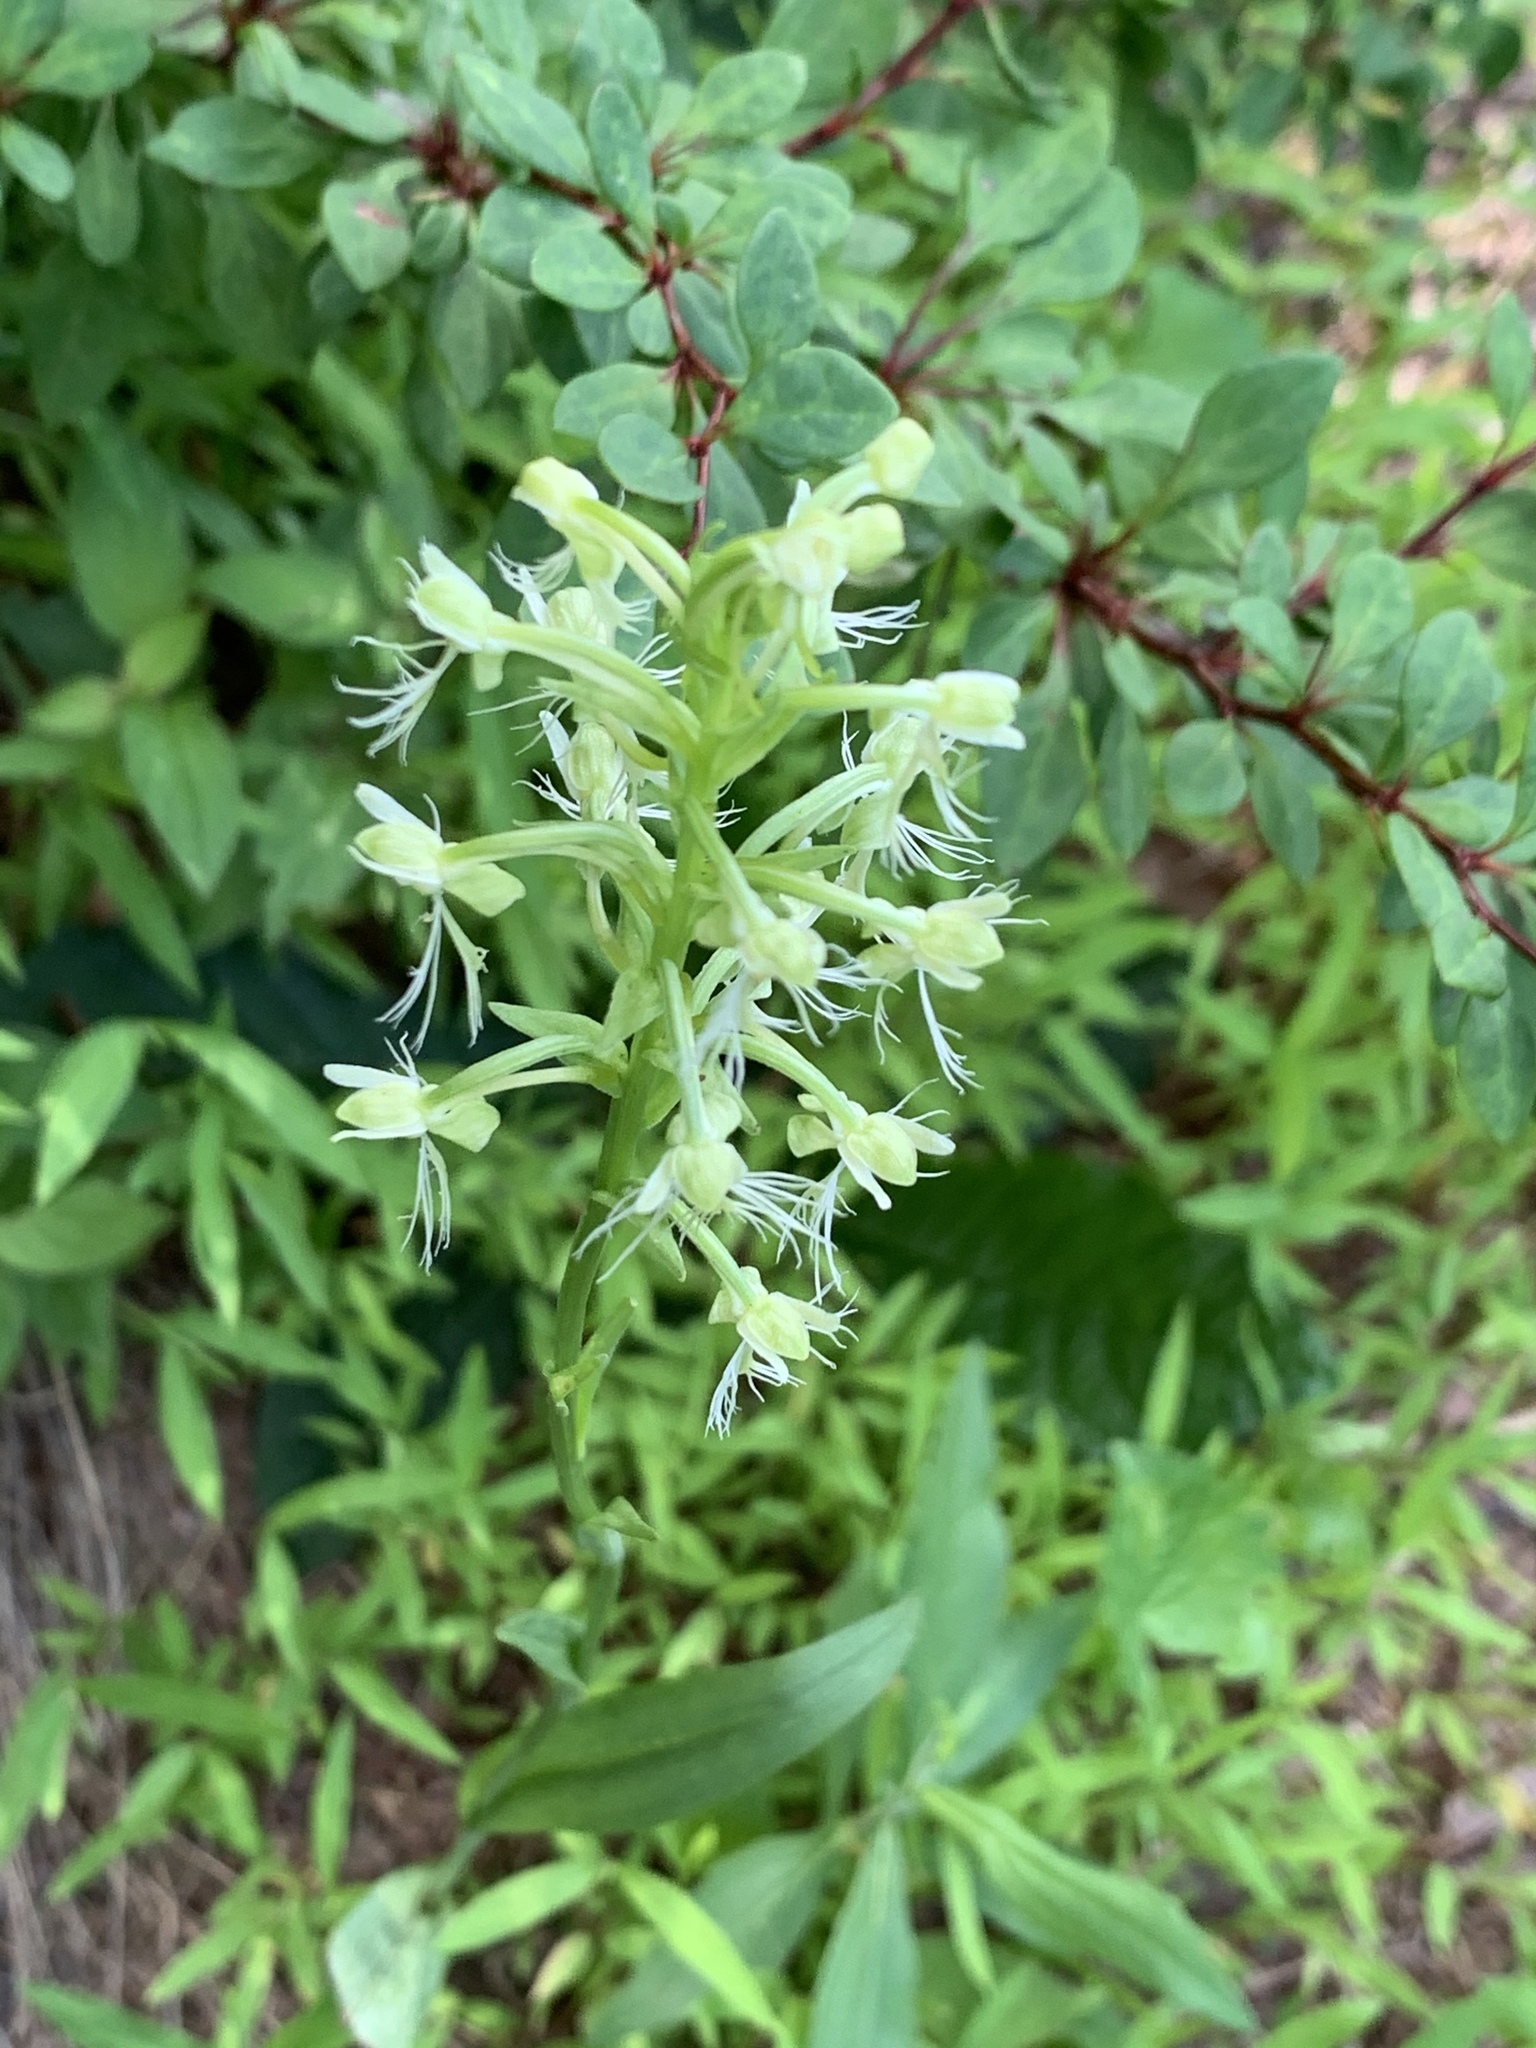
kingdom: Plantae
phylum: Tracheophyta
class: Liliopsida
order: Asparagales
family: Orchidaceae
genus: Platanthera
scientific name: Platanthera lacera
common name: Green fringed orchid
